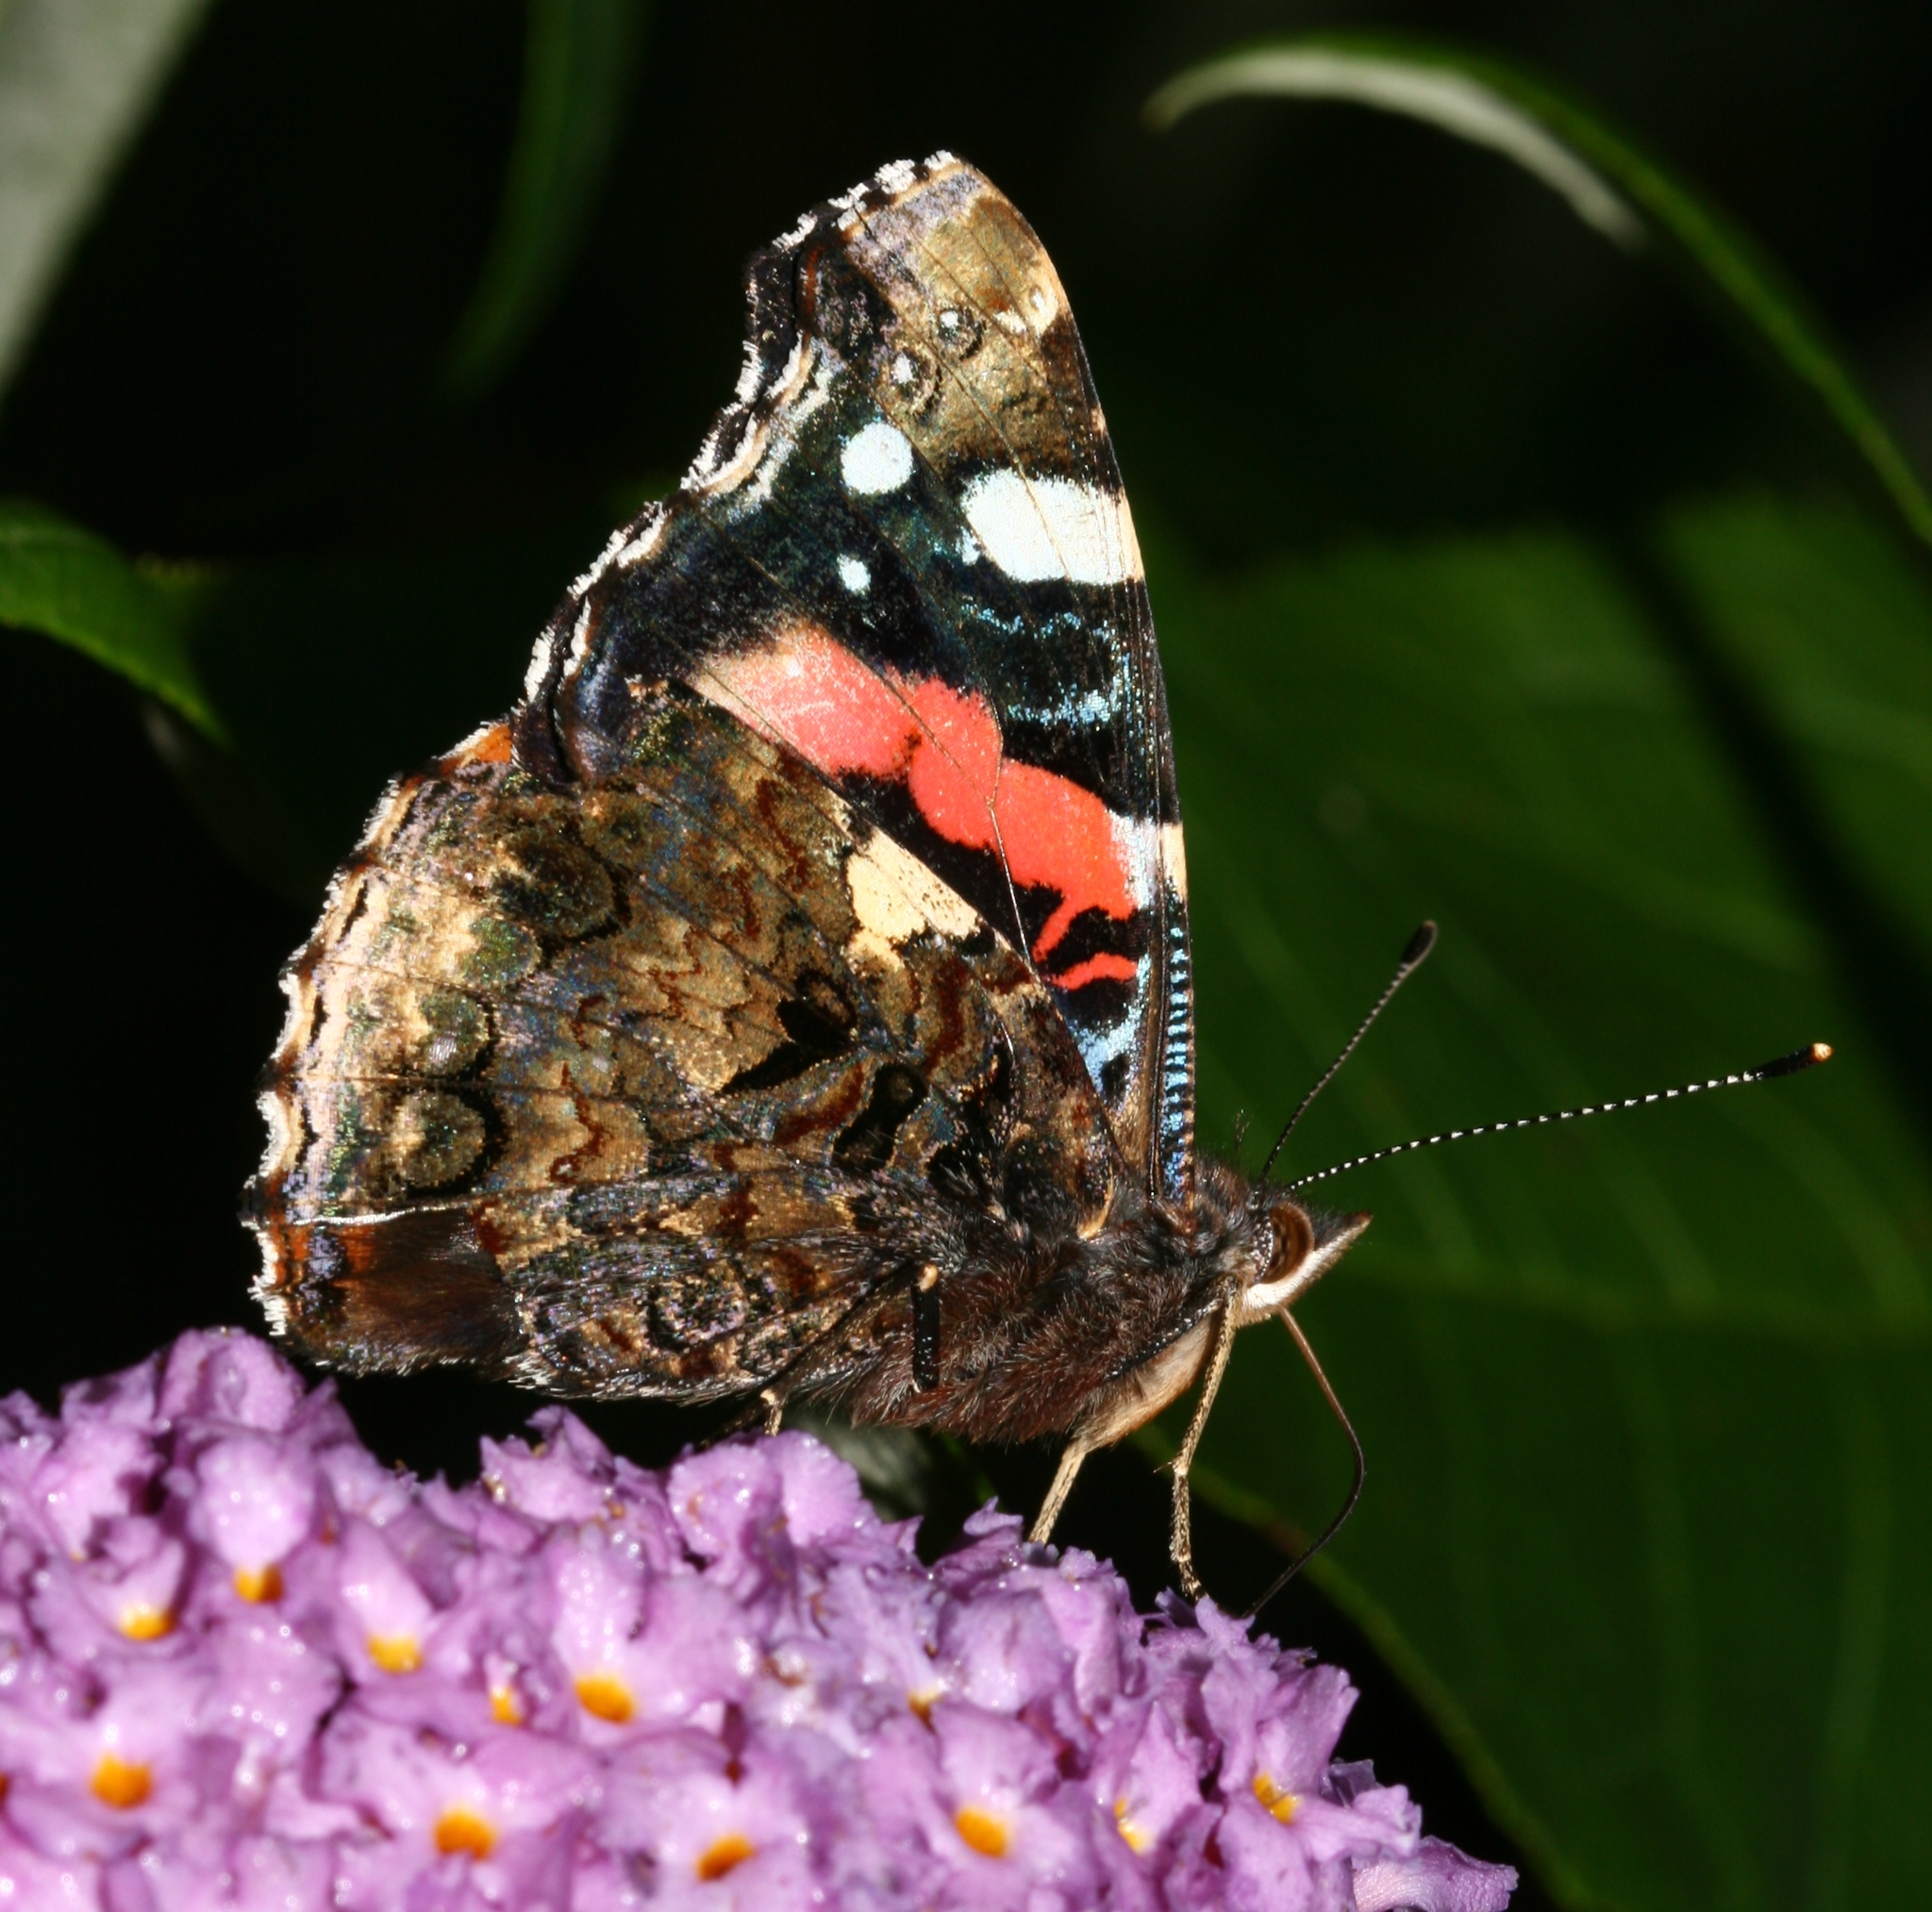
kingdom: Animalia
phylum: Arthropoda
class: Insecta
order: Lepidoptera
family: Nymphalidae
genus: Vanessa
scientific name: Vanessa atalanta
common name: Red admiral
